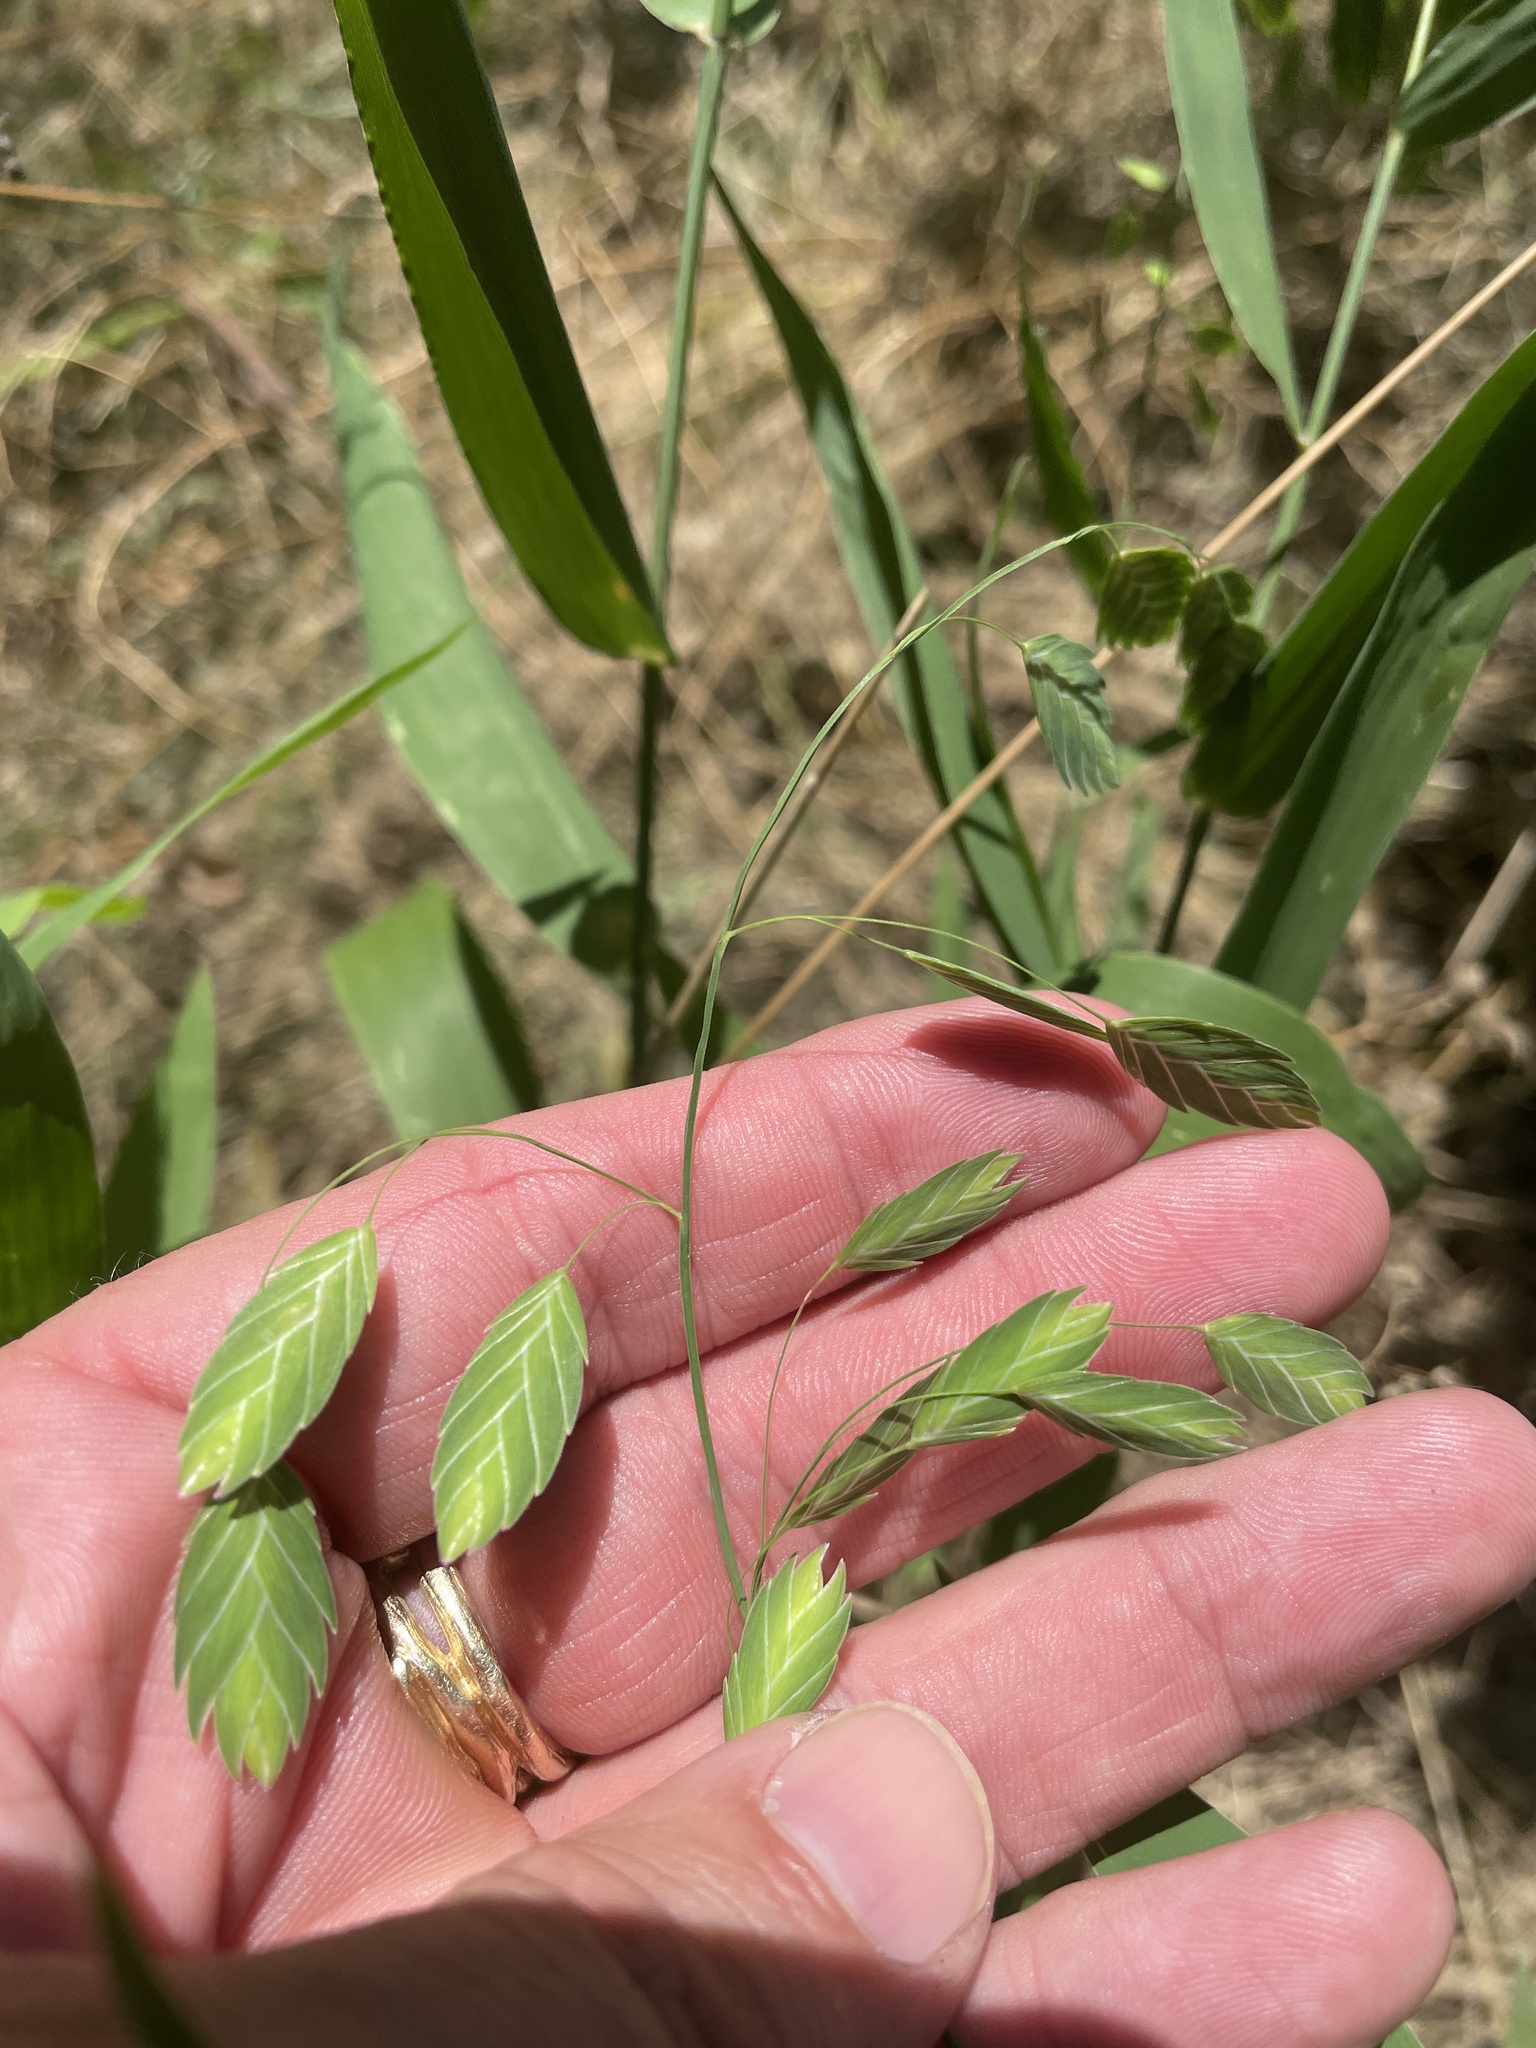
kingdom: Plantae
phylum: Tracheophyta
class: Liliopsida
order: Poales
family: Poaceae
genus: Chasmanthium
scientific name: Chasmanthium latifolium
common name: Broad-leaved chasmanthium
